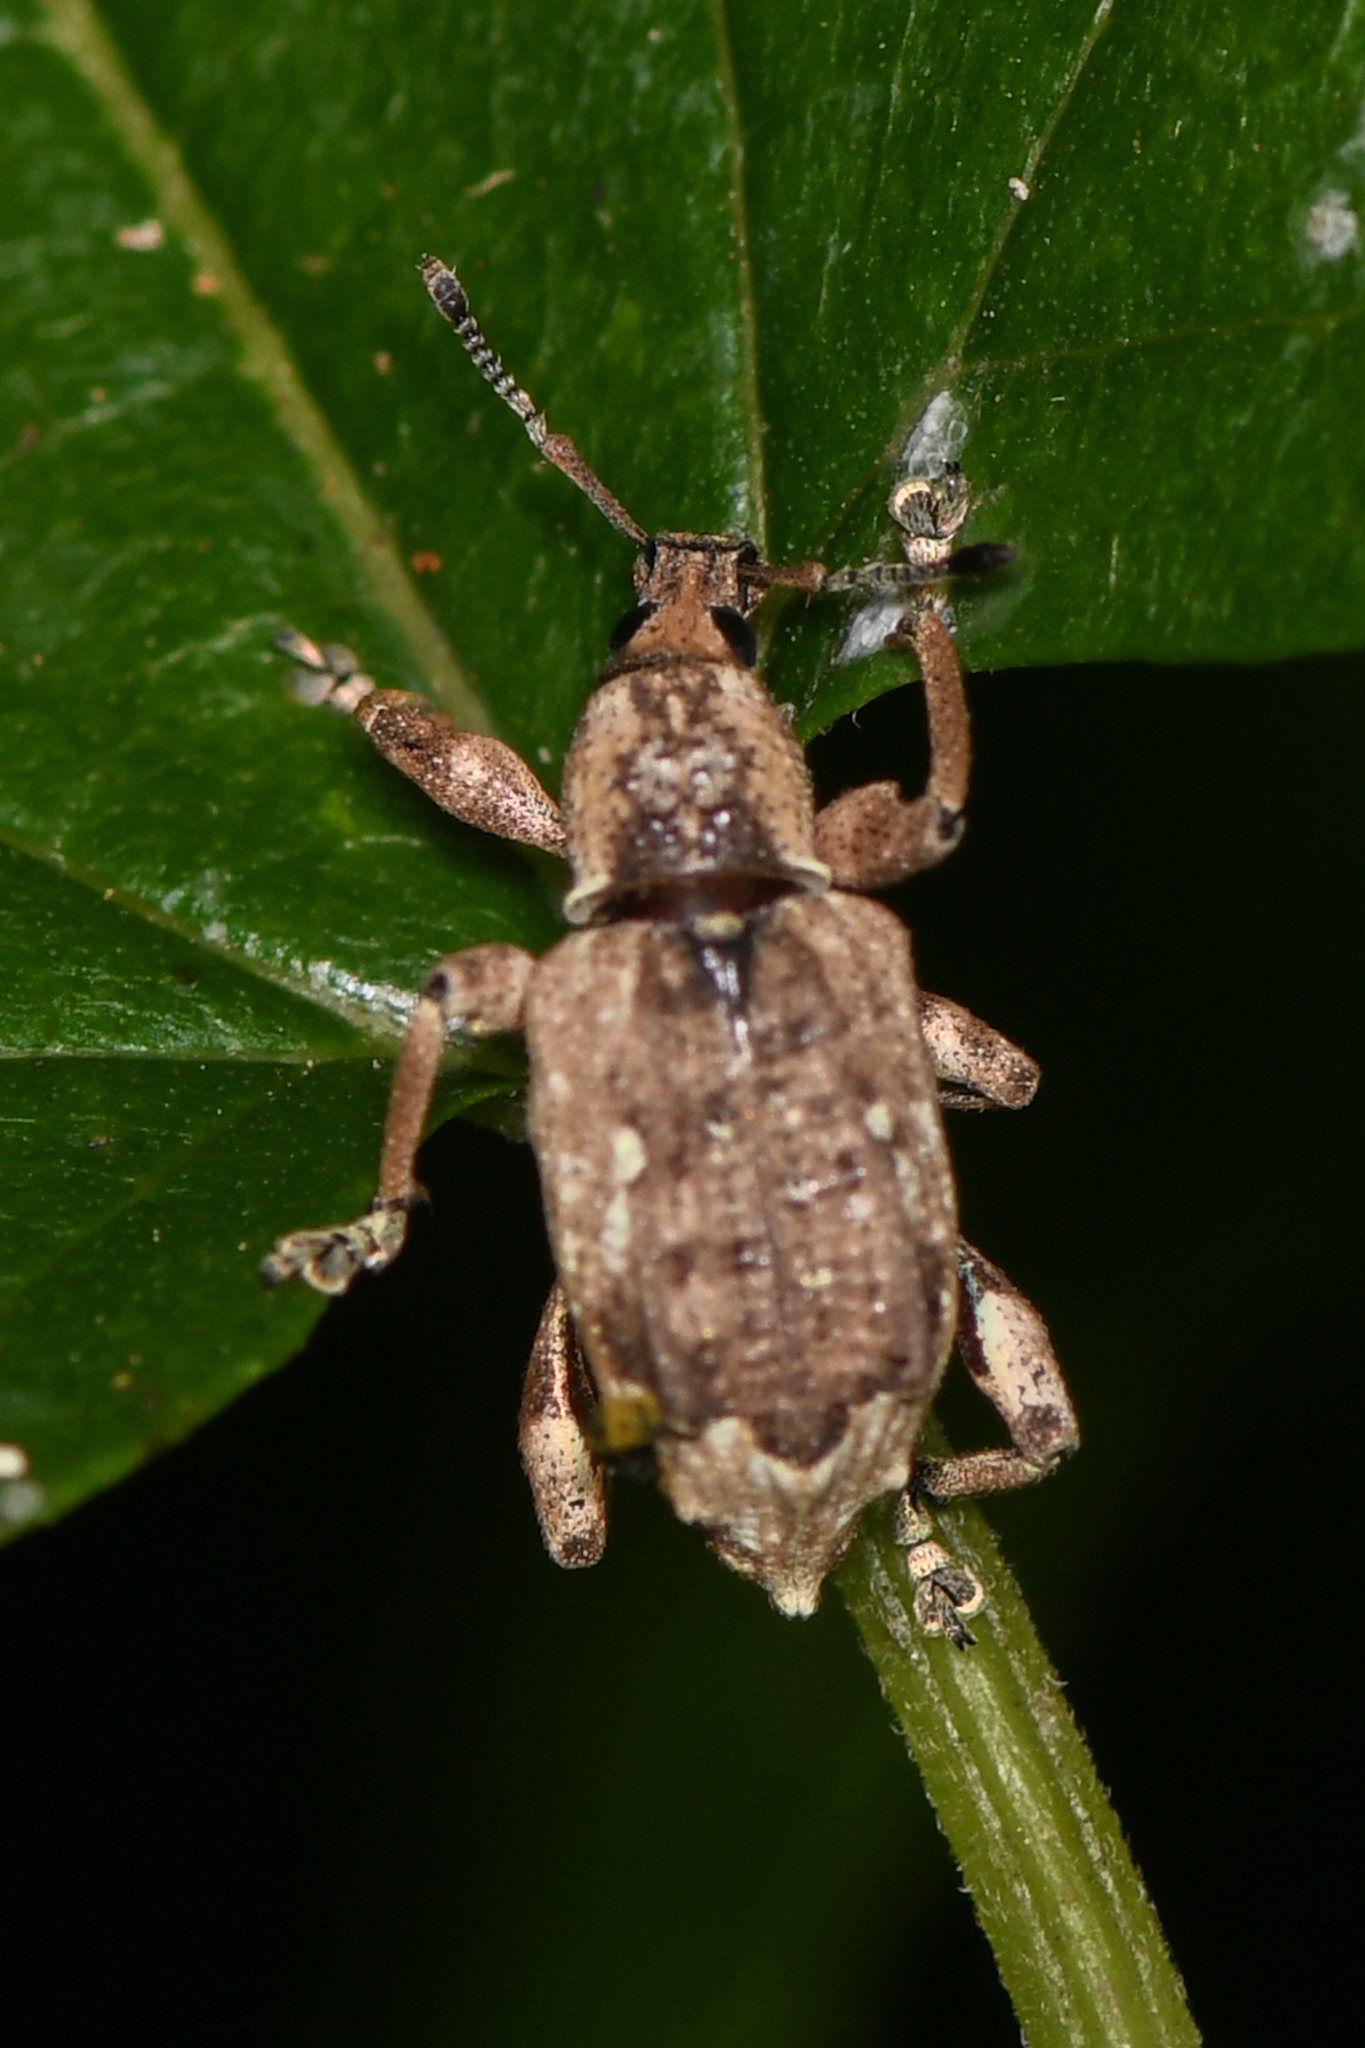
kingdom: Animalia
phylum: Arthropoda
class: Insecta
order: Coleoptera
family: Curculionidae
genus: Claeoteges
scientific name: Claeoteges virosa
